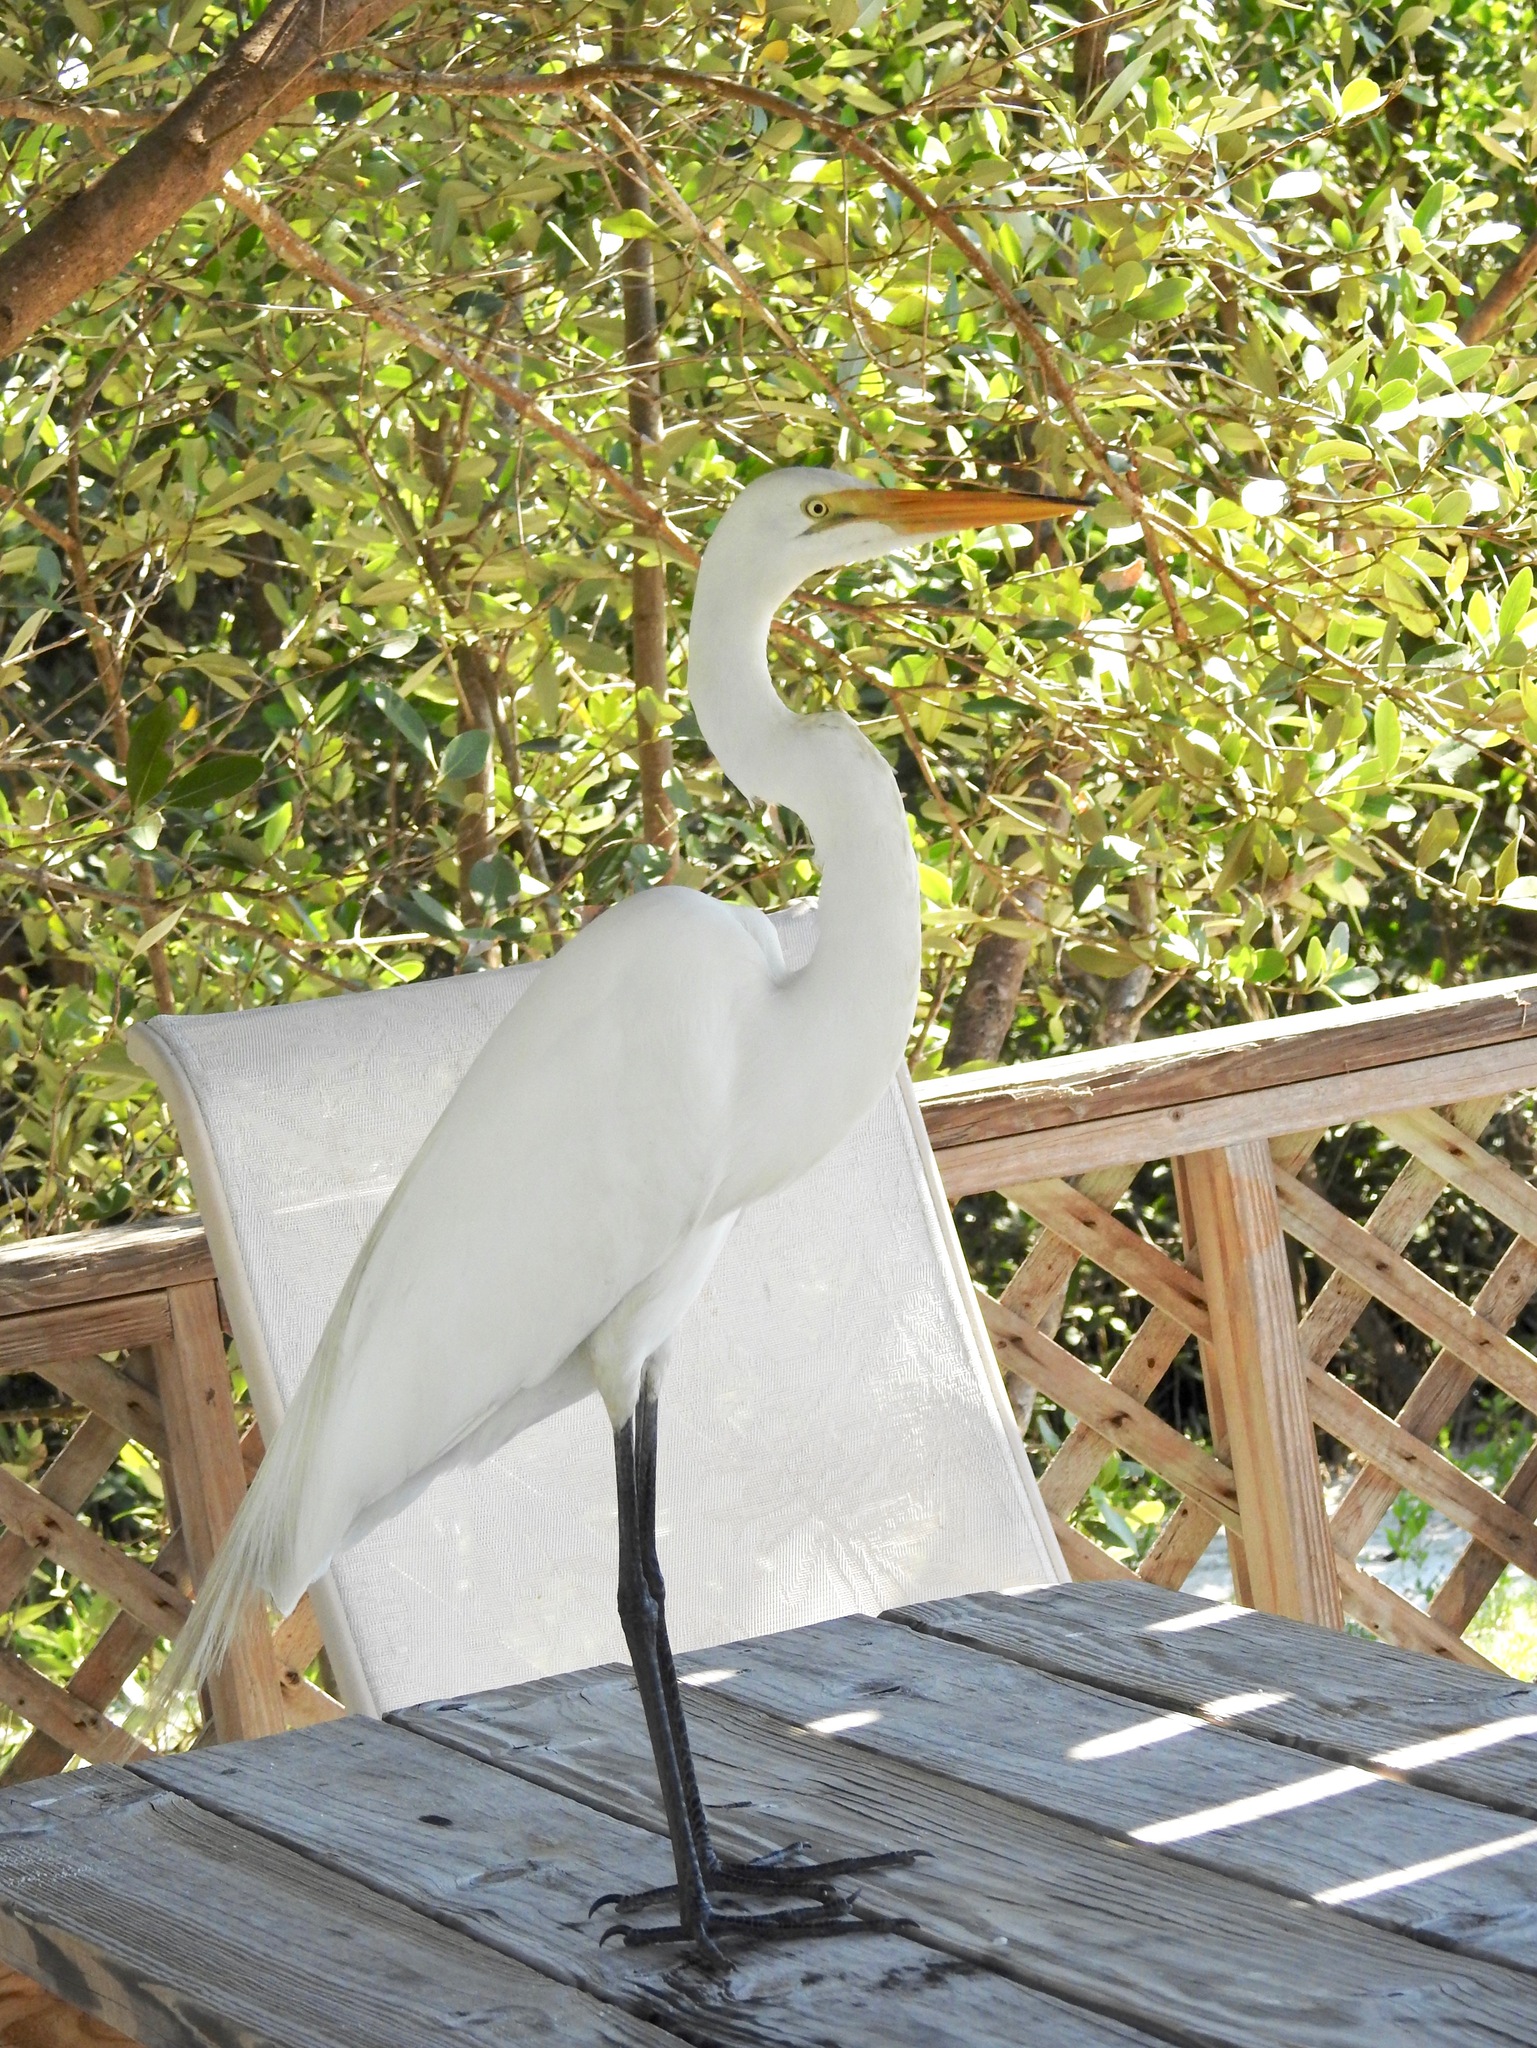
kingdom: Animalia
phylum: Chordata
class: Aves
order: Pelecaniformes
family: Ardeidae
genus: Ardea
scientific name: Ardea alba
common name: Great egret
